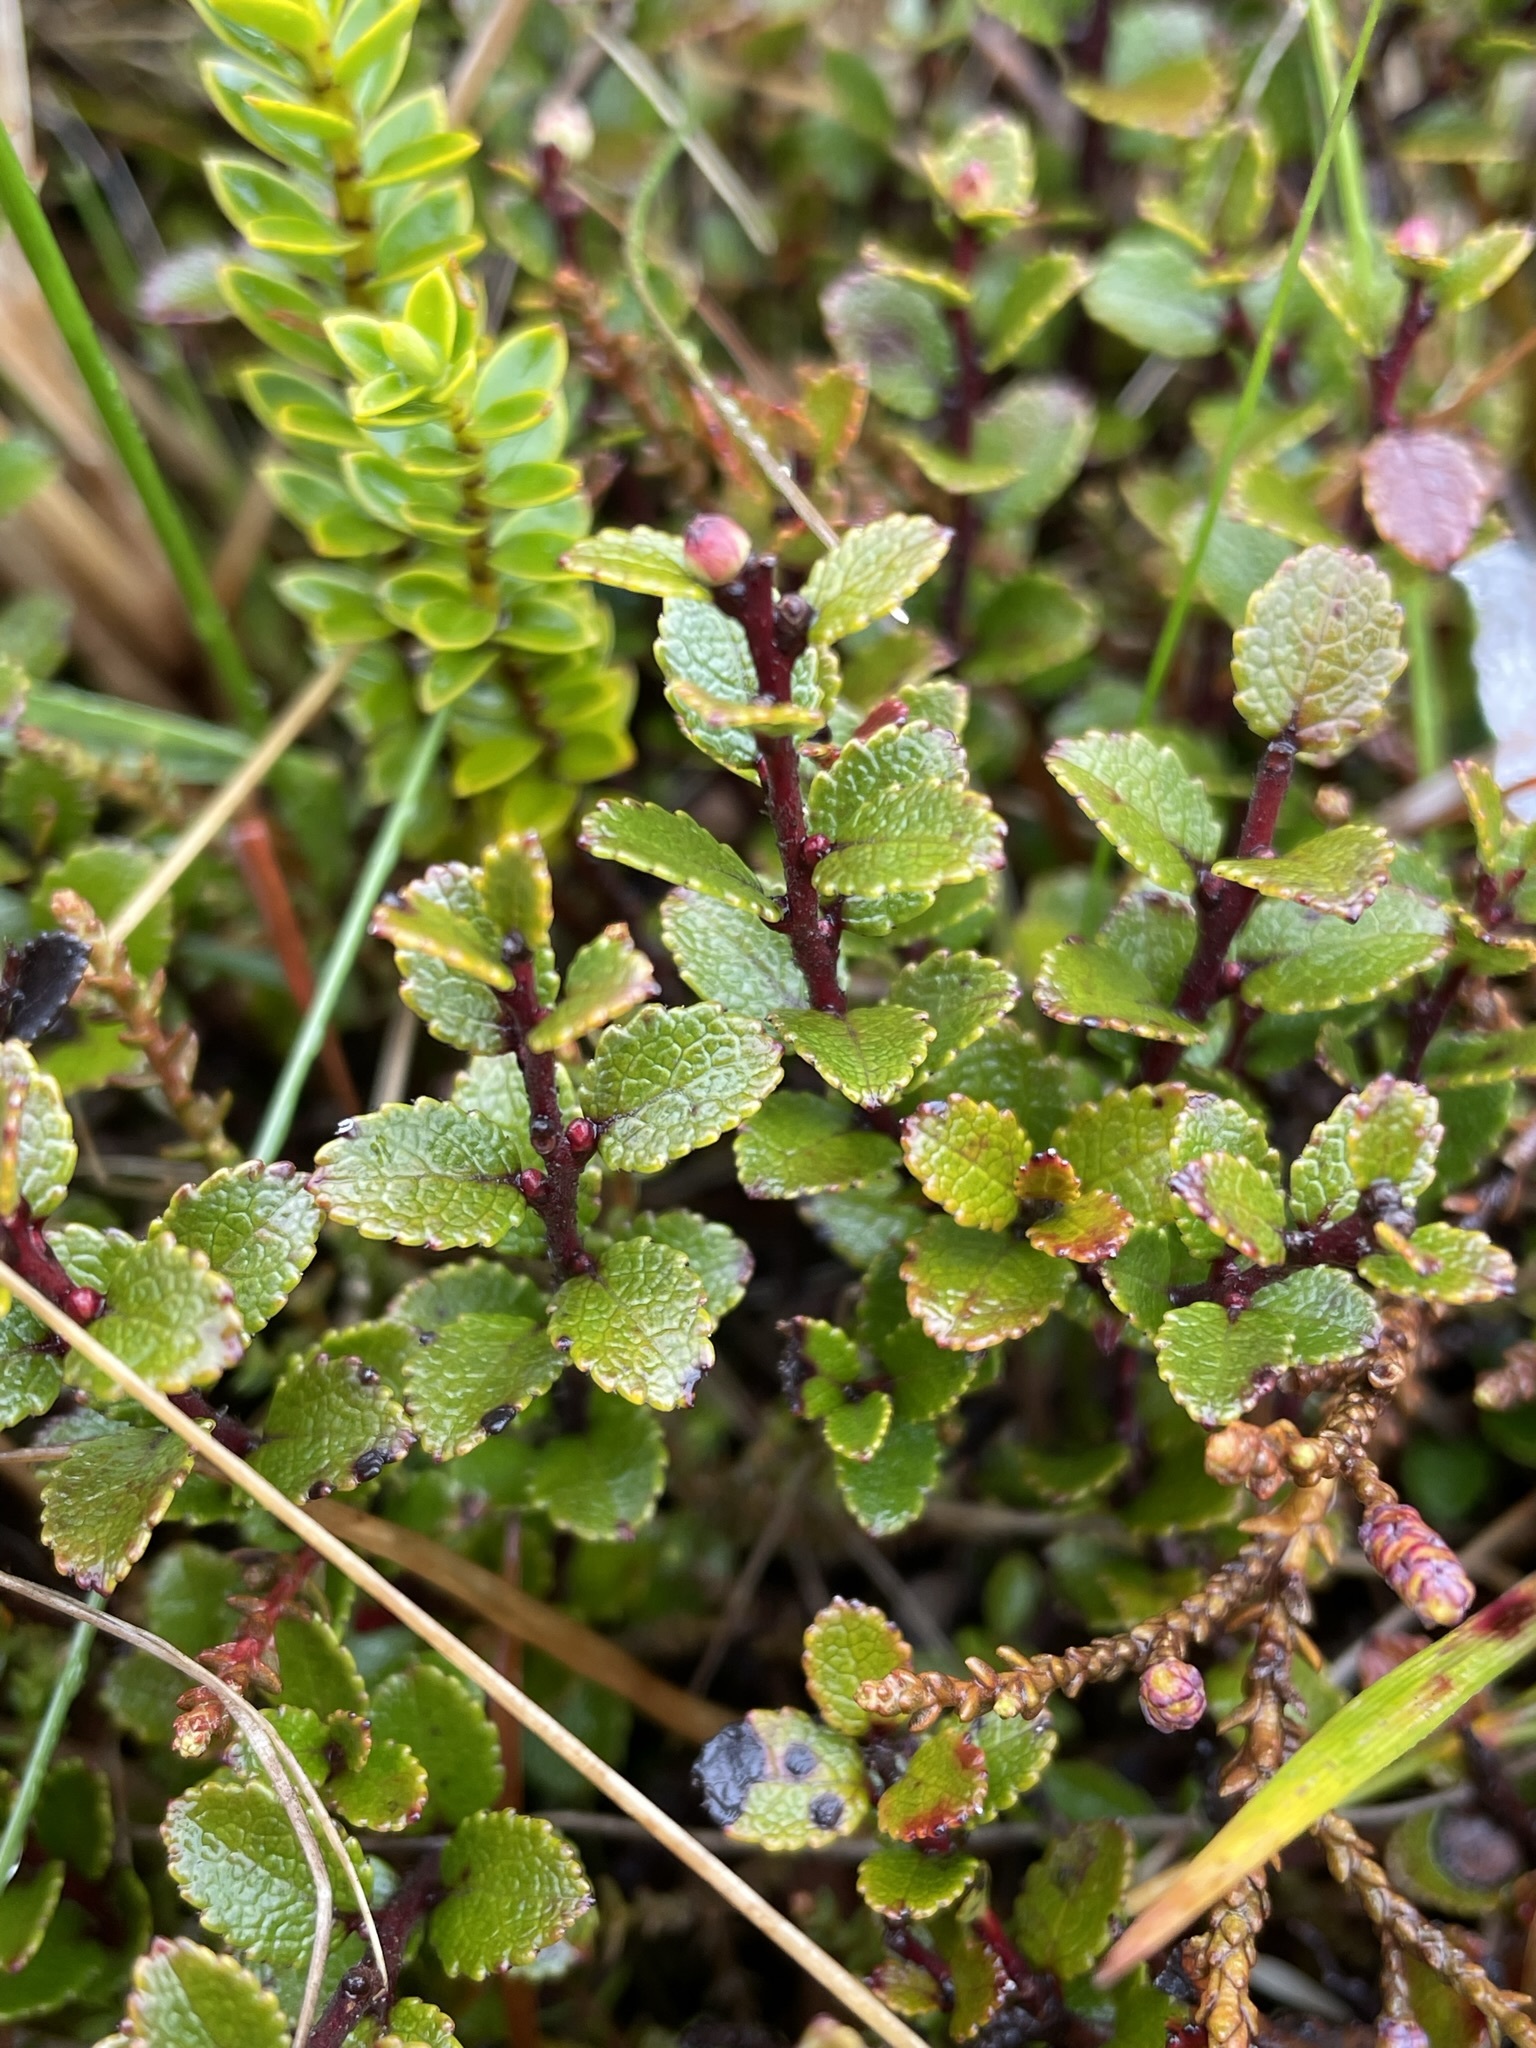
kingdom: Plantae
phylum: Tracheophyta
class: Magnoliopsida
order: Ericales
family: Ericaceae
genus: Gaultheria
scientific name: Gaultheria colensoi
